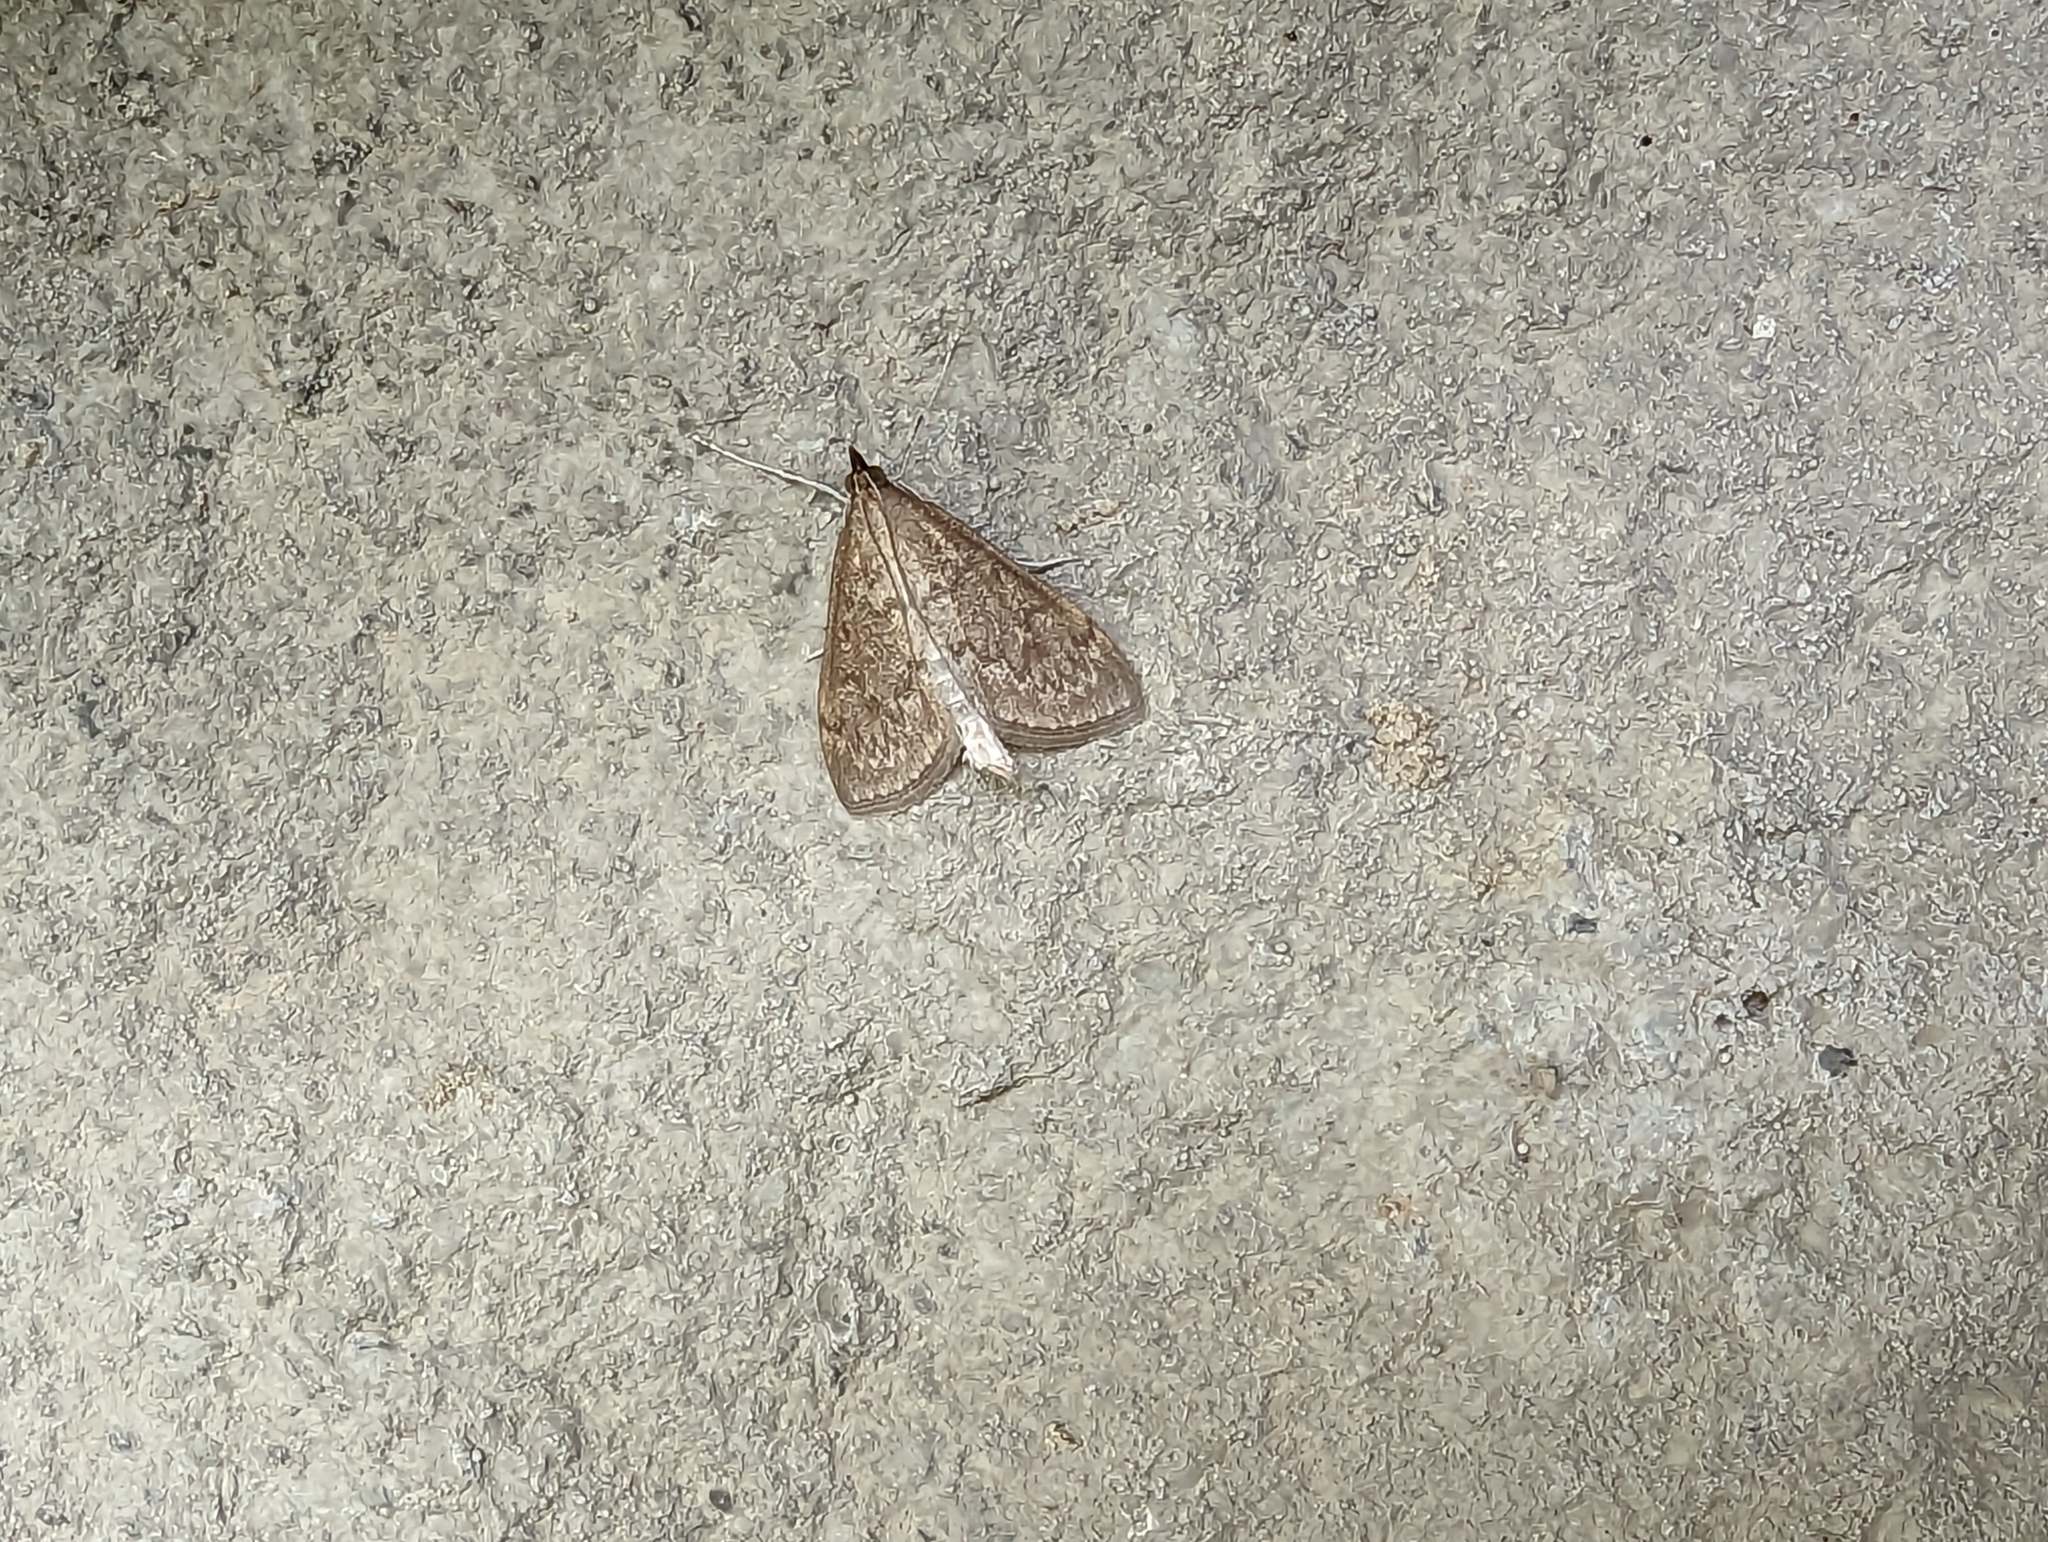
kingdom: Animalia
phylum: Arthropoda
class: Insecta
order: Lepidoptera
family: Crambidae
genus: Saucrobotys
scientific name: Saucrobotys futilalis
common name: Dogbane saucrobotys moth
